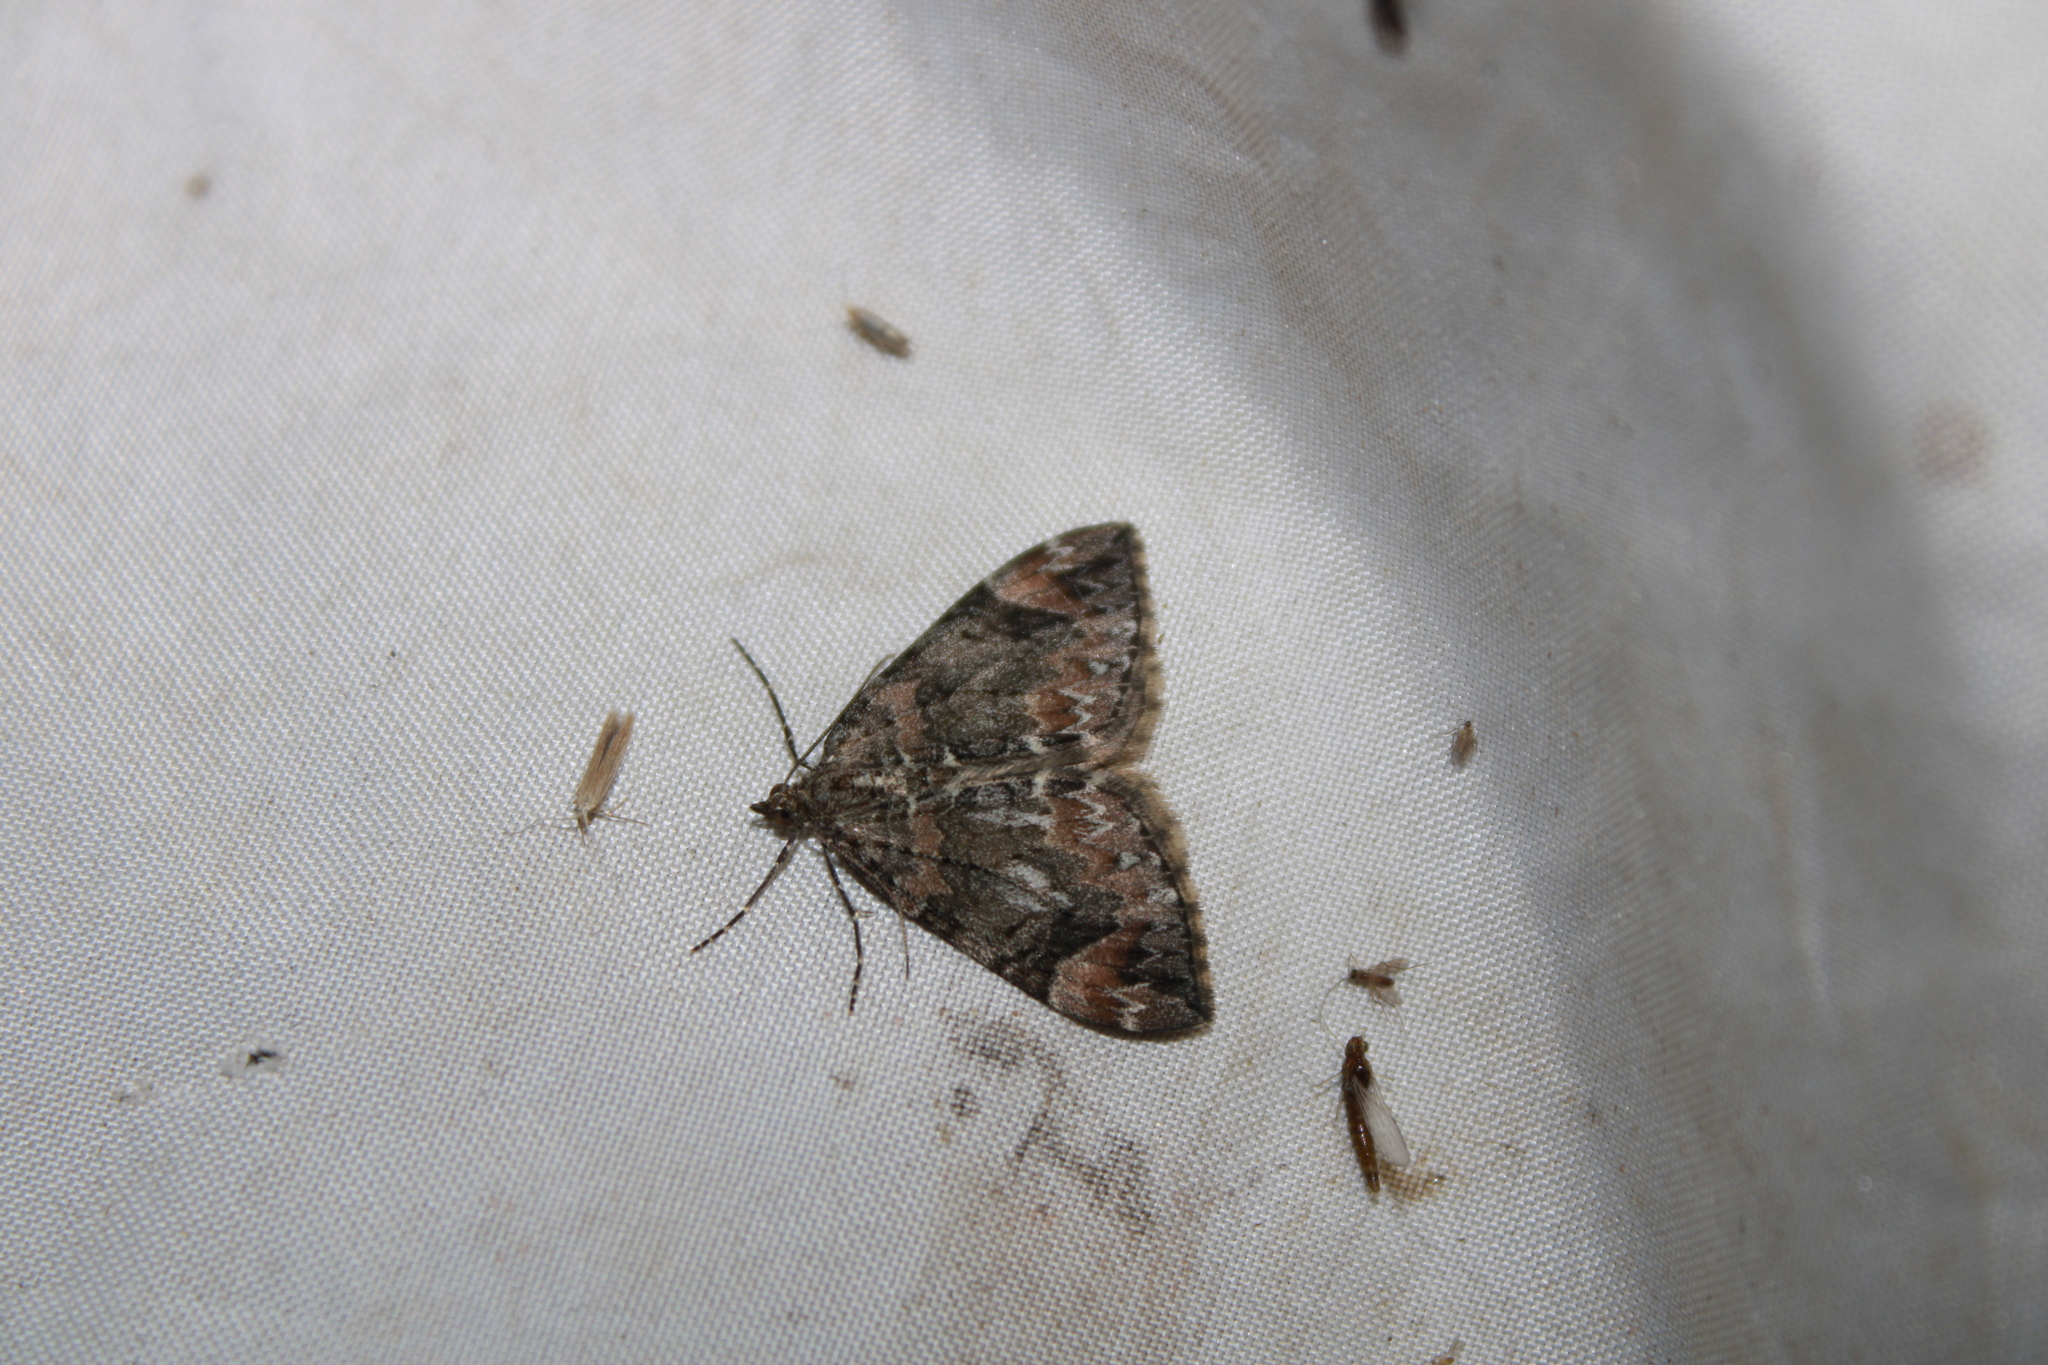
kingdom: Animalia
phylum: Arthropoda
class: Insecta
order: Lepidoptera
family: Geometridae
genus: Dysstroma
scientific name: Dysstroma citrata
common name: Dark marbled carpet
